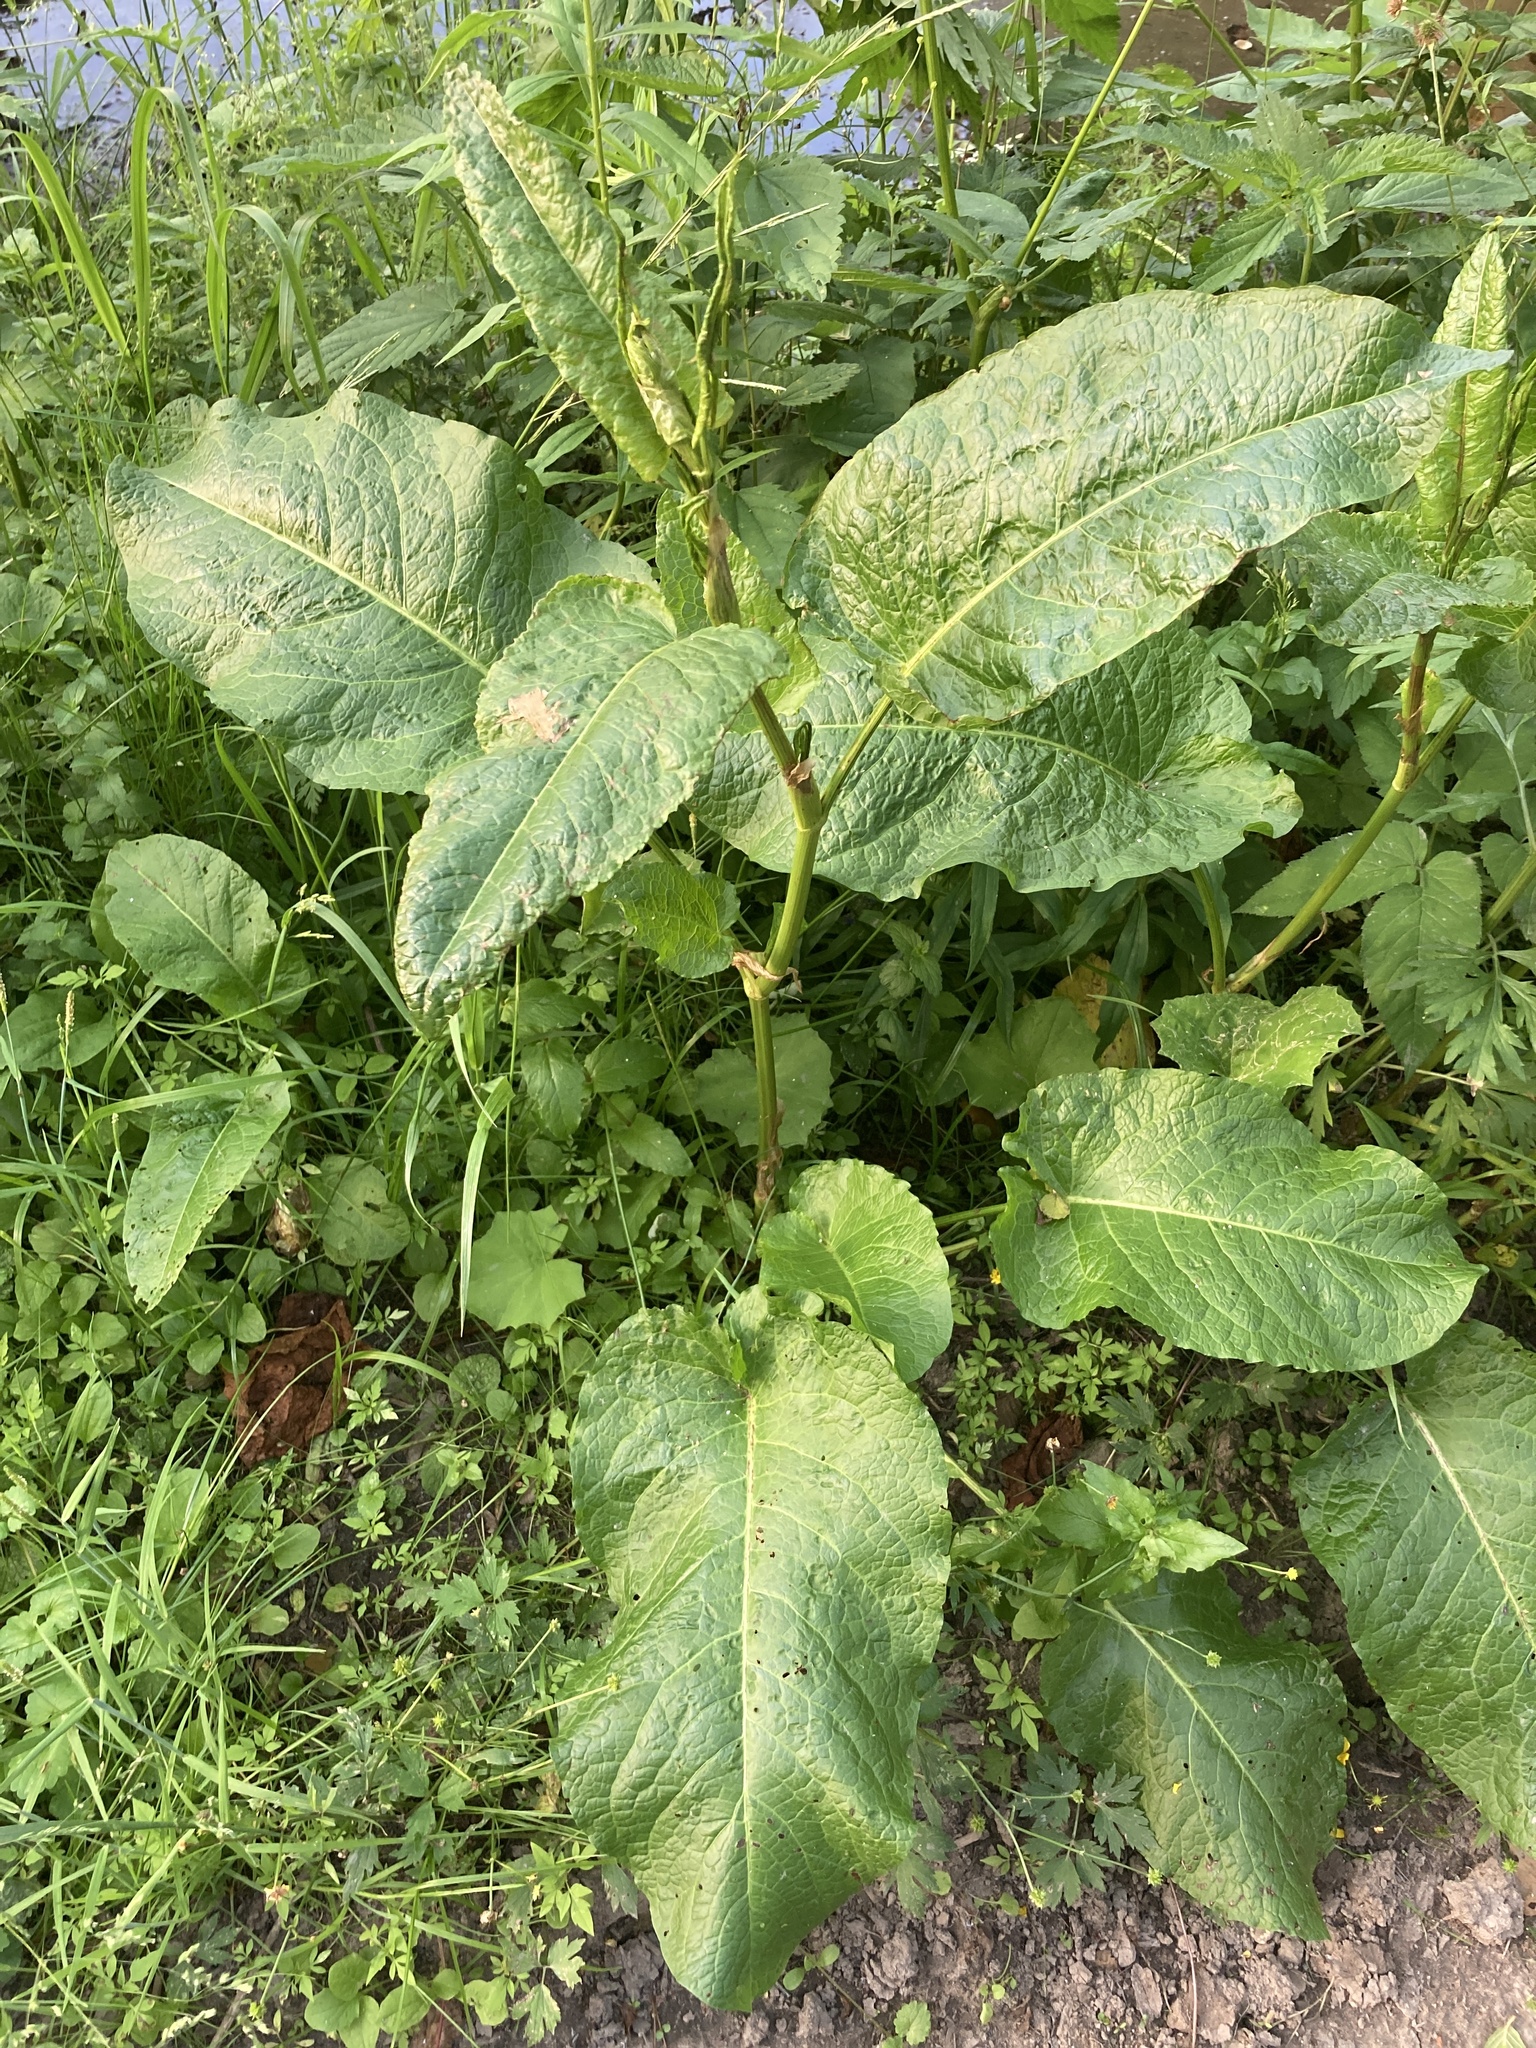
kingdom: Plantae
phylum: Tracheophyta
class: Magnoliopsida
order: Caryophyllales
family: Polygonaceae
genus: Rumex
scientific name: Rumex obtusifolius
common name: Bitter dock
